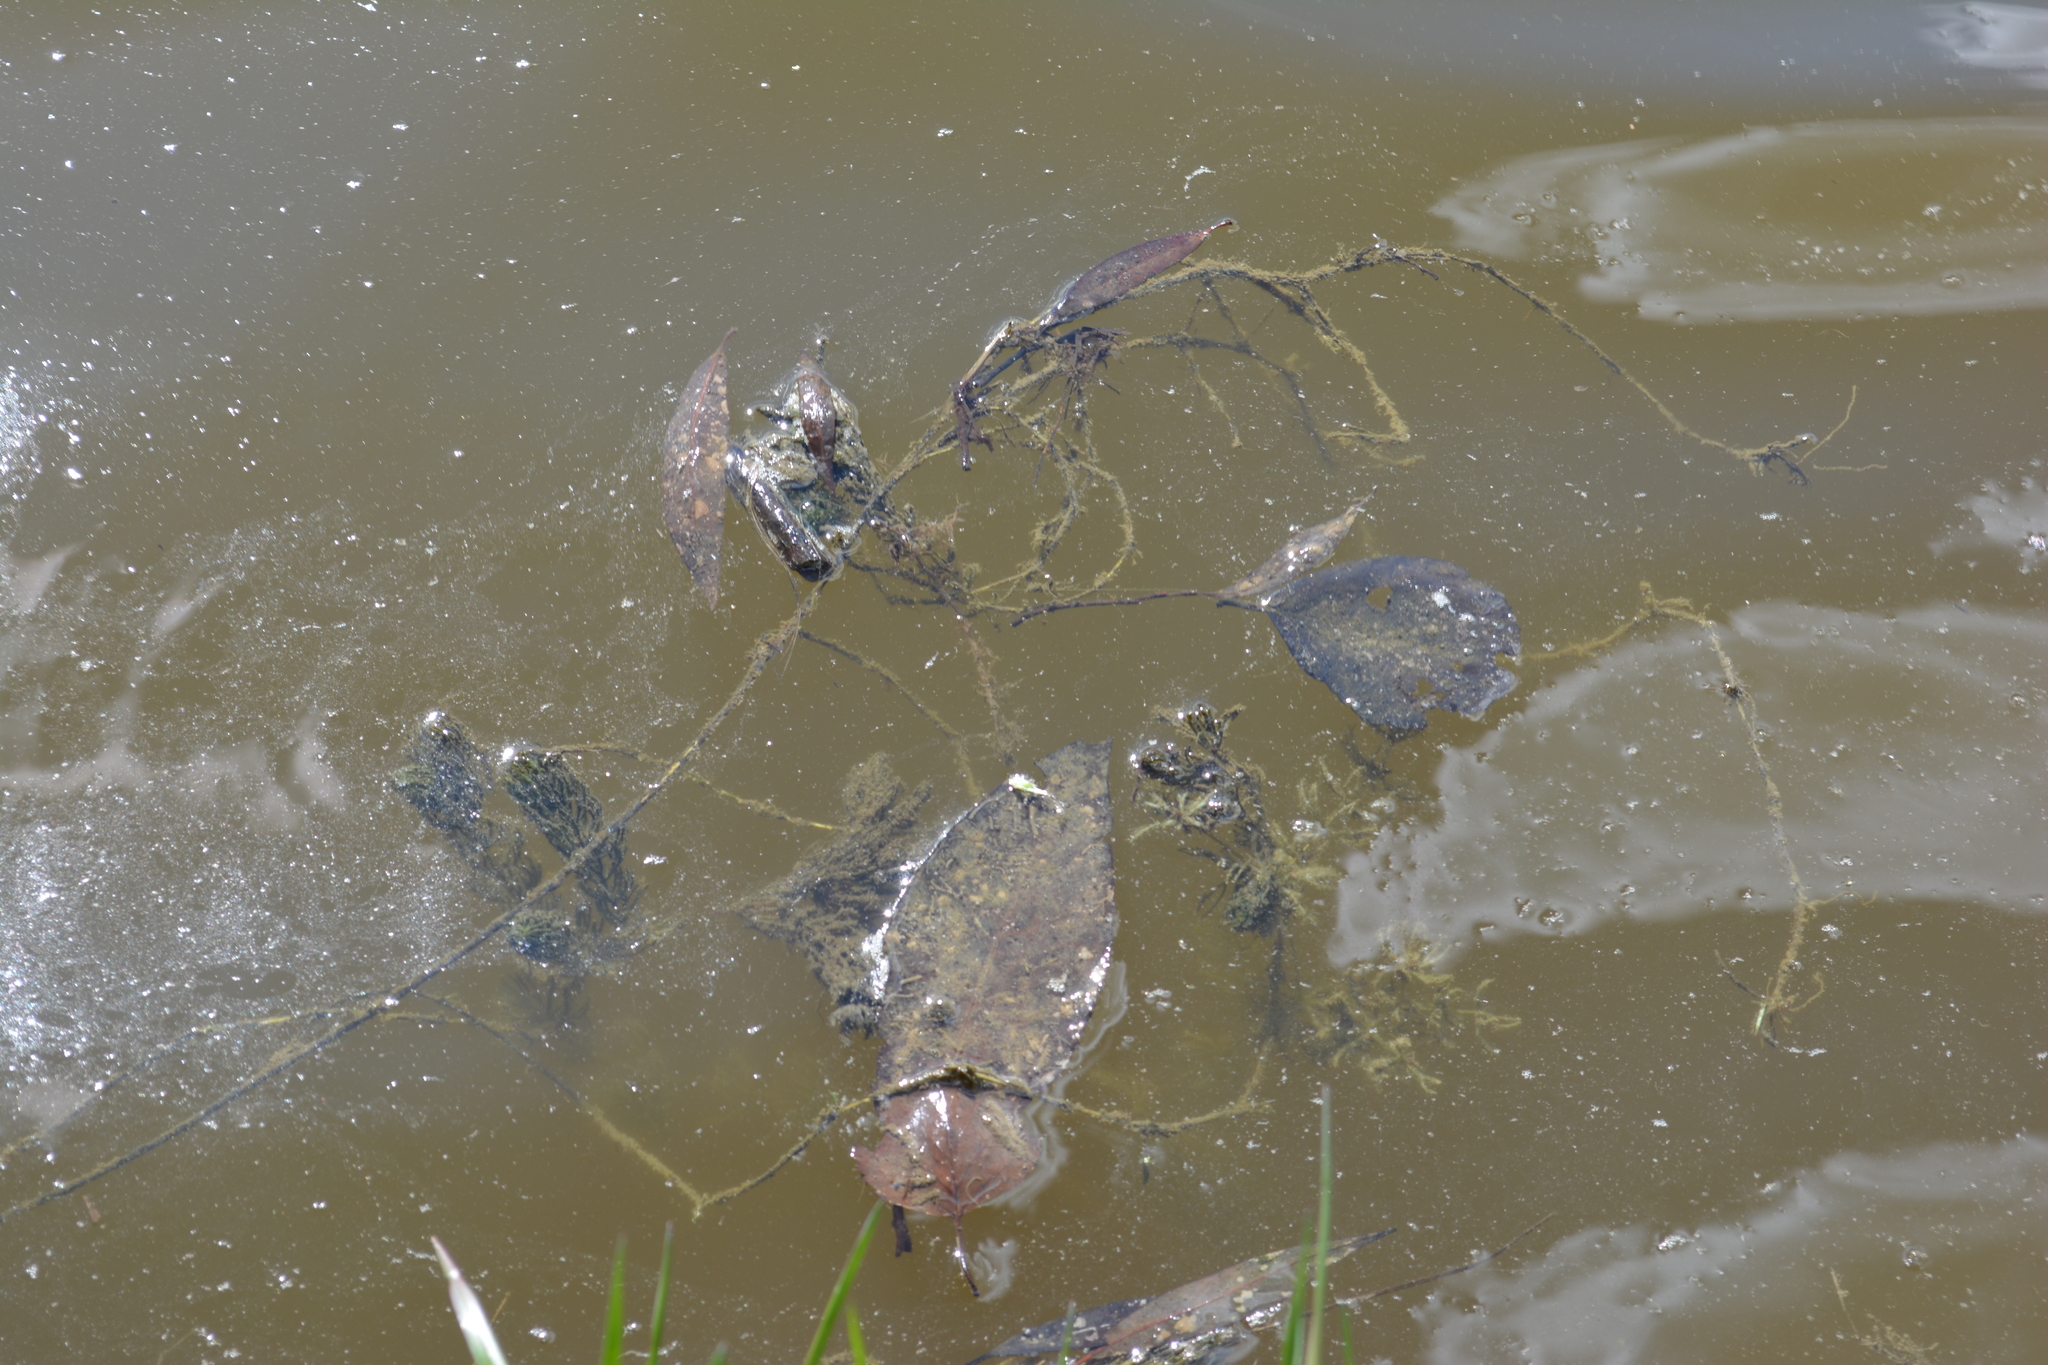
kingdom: Plantae
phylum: Tracheophyta
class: Magnoliopsida
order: Ceratophyllales
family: Ceratophyllaceae
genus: Ceratophyllum
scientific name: Ceratophyllum demersum
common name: Rigid hornwort
